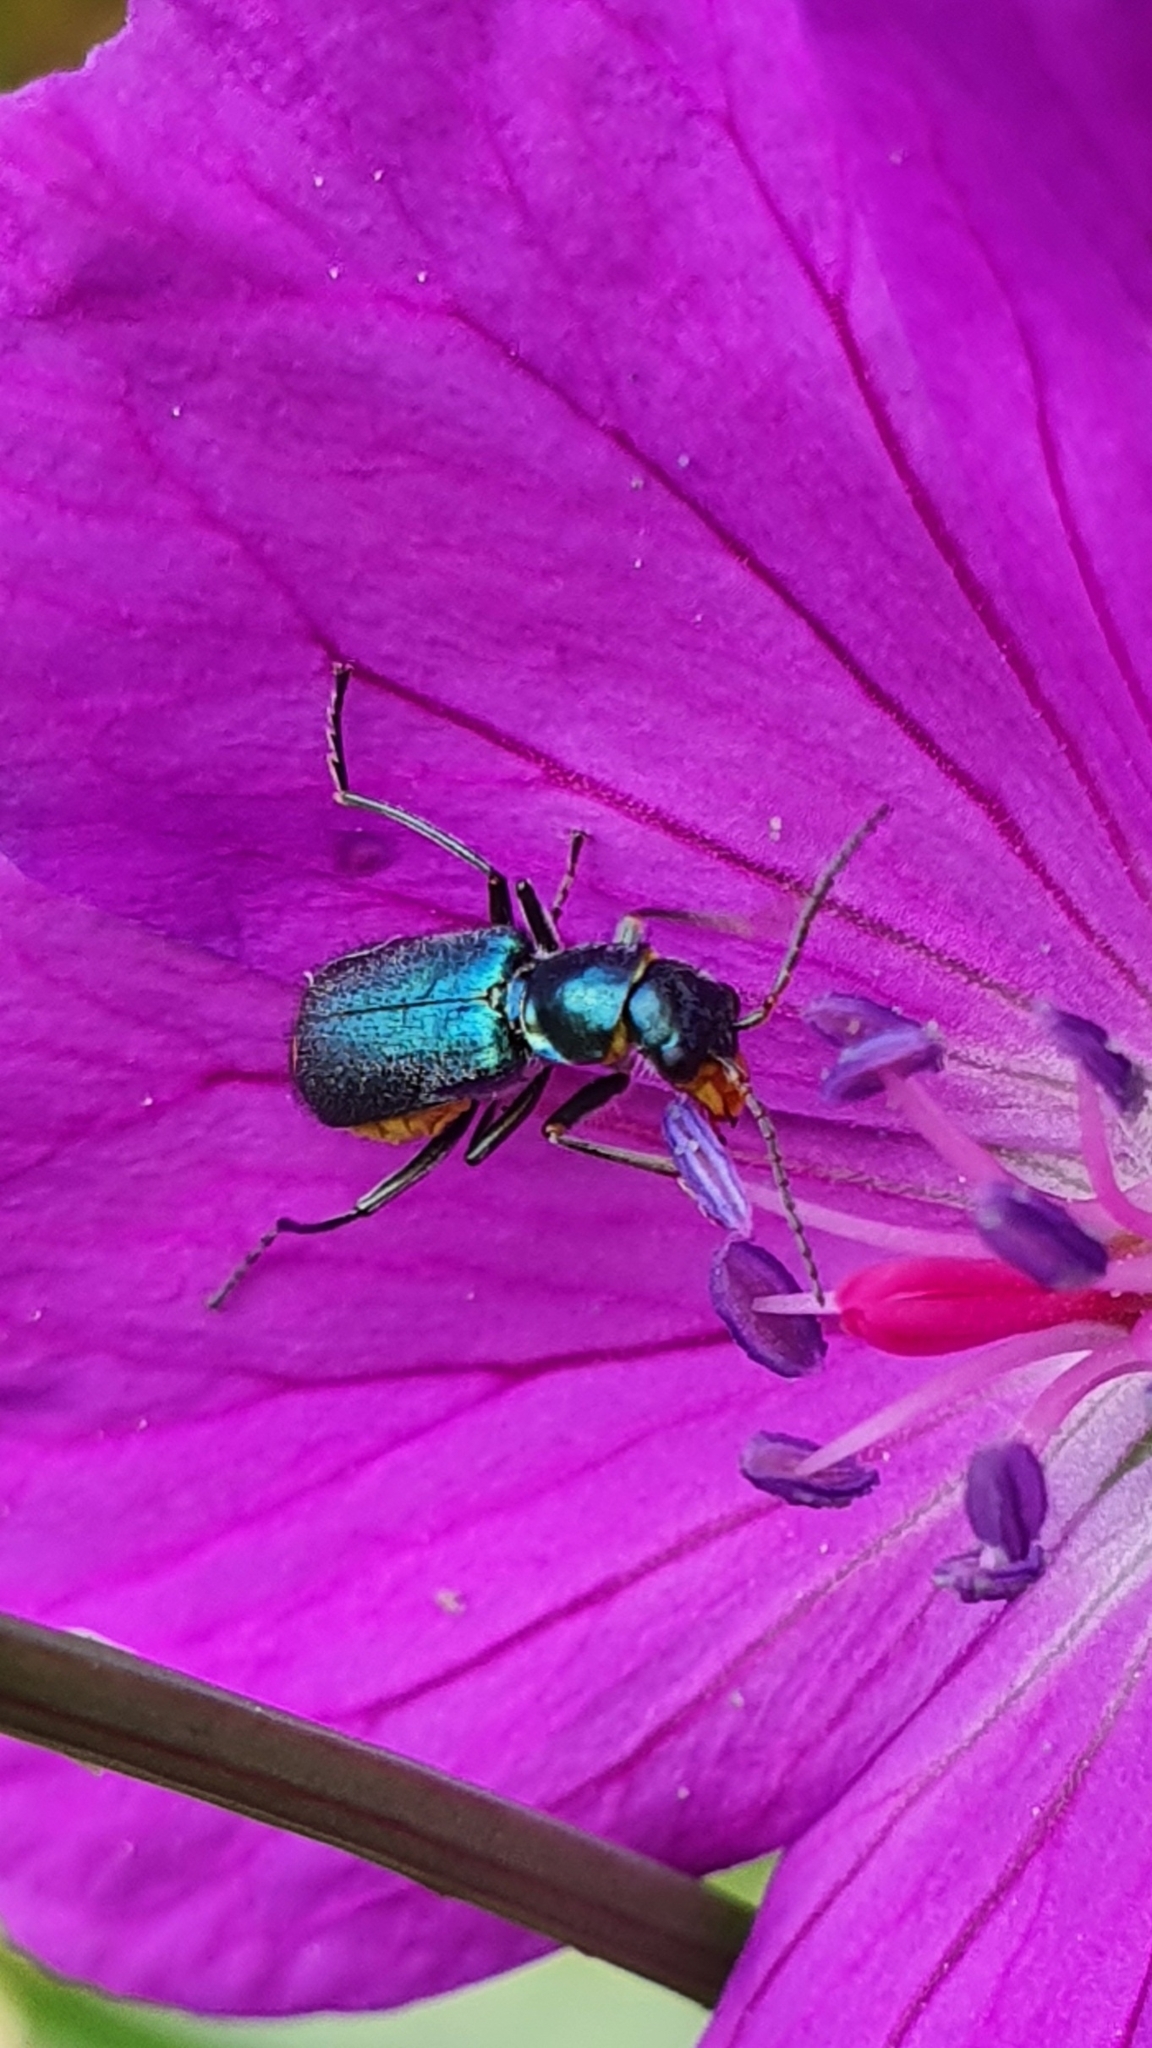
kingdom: Animalia
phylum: Arthropoda
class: Insecta
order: Coleoptera
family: Malachiidae
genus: Clanoptilus
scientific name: Clanoptilus marginellus
